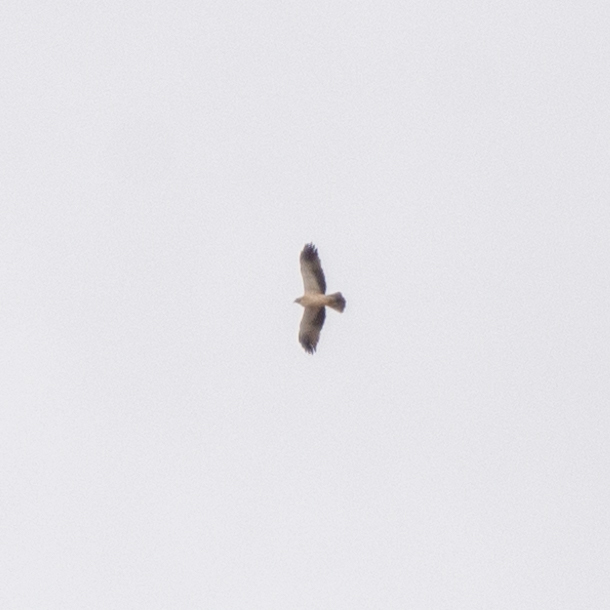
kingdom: Animalia
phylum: Chordata
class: Aves
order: Accipitriformes
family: Accipitridae
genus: Hieraaetus
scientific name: Hieraaetus pennatus
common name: Booted eagle
